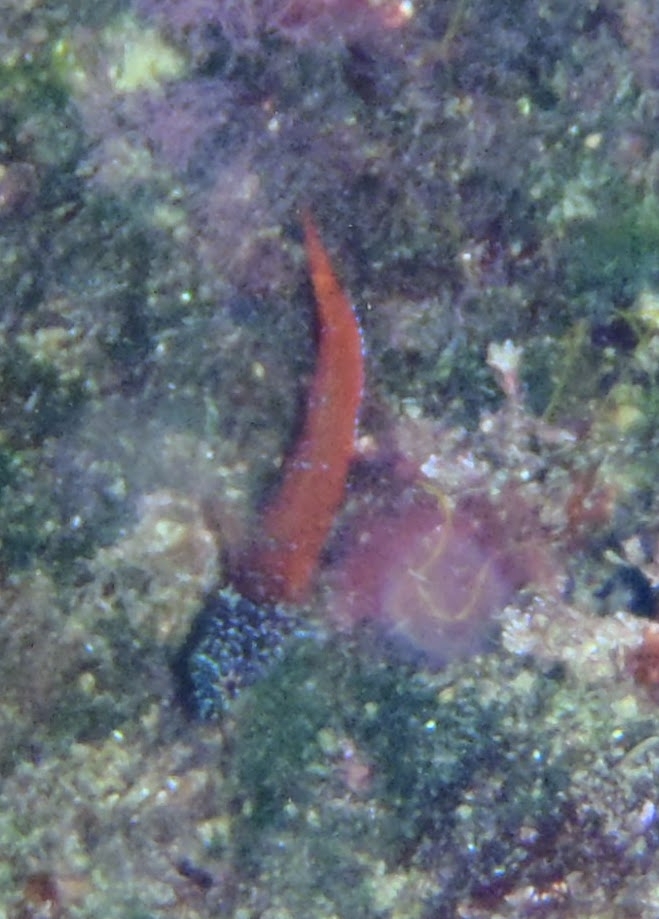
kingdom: Animalia
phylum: Chordata
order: Perciformes
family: Tripterygiidae
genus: Tripterygion
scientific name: Tripterygion melanurum
